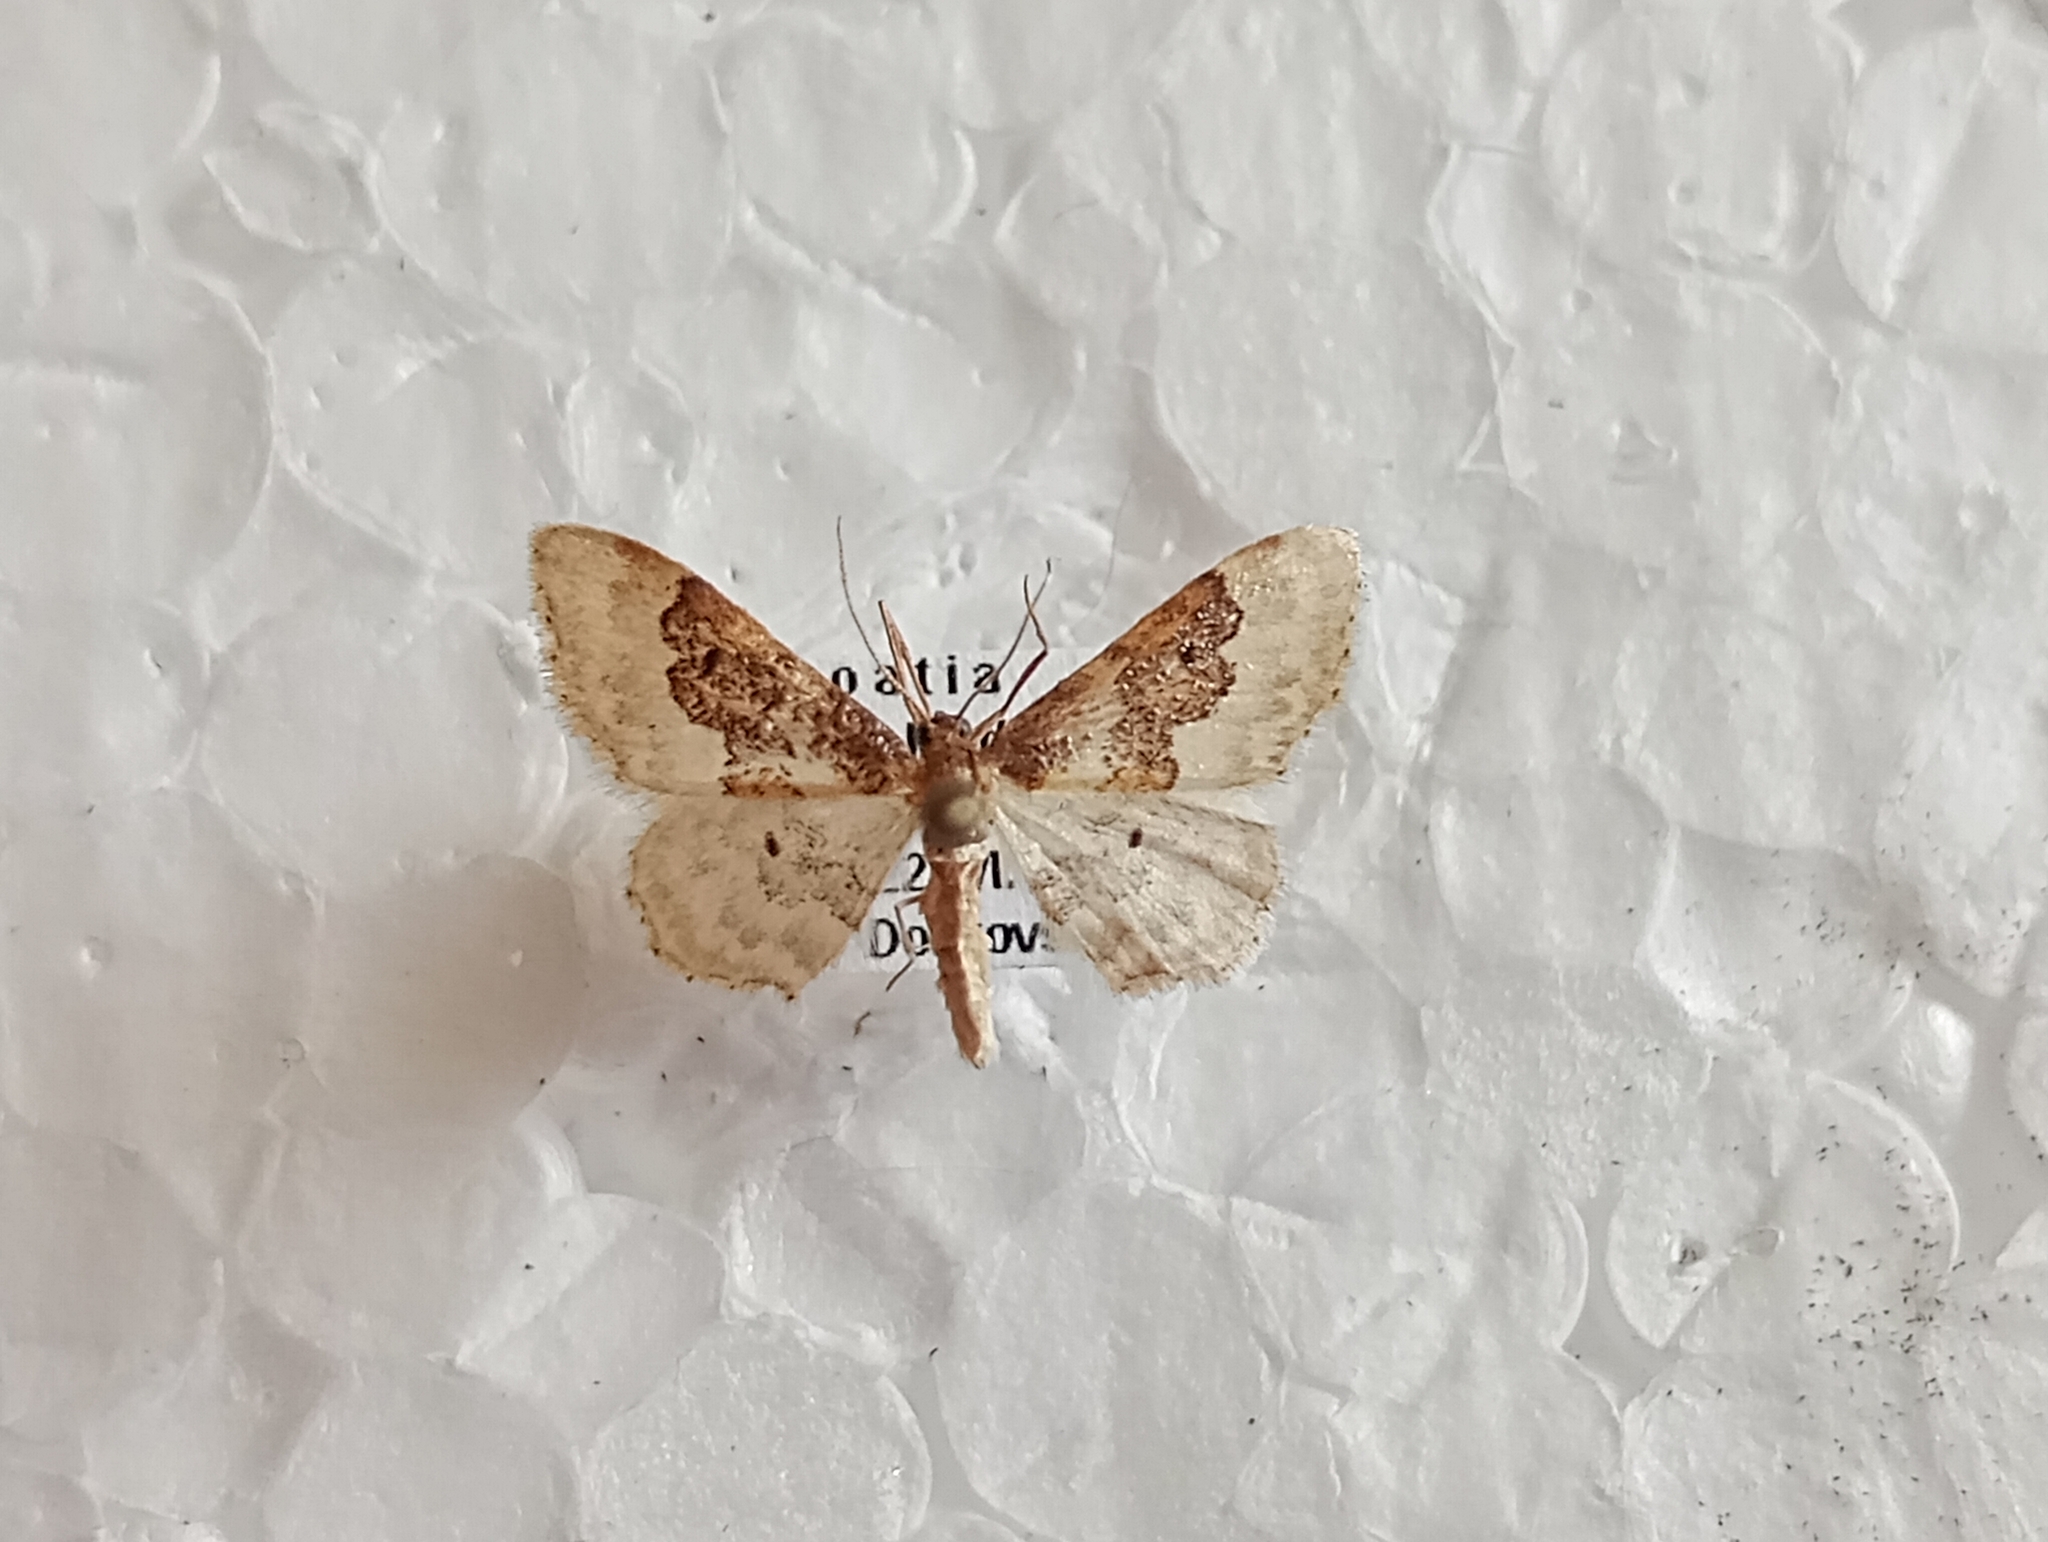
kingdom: Animalia
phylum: Arthropoda
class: Insecta
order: Lepidoptera
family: Geometridae
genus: Idaea
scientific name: Idaea rusticata
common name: Least carpet
